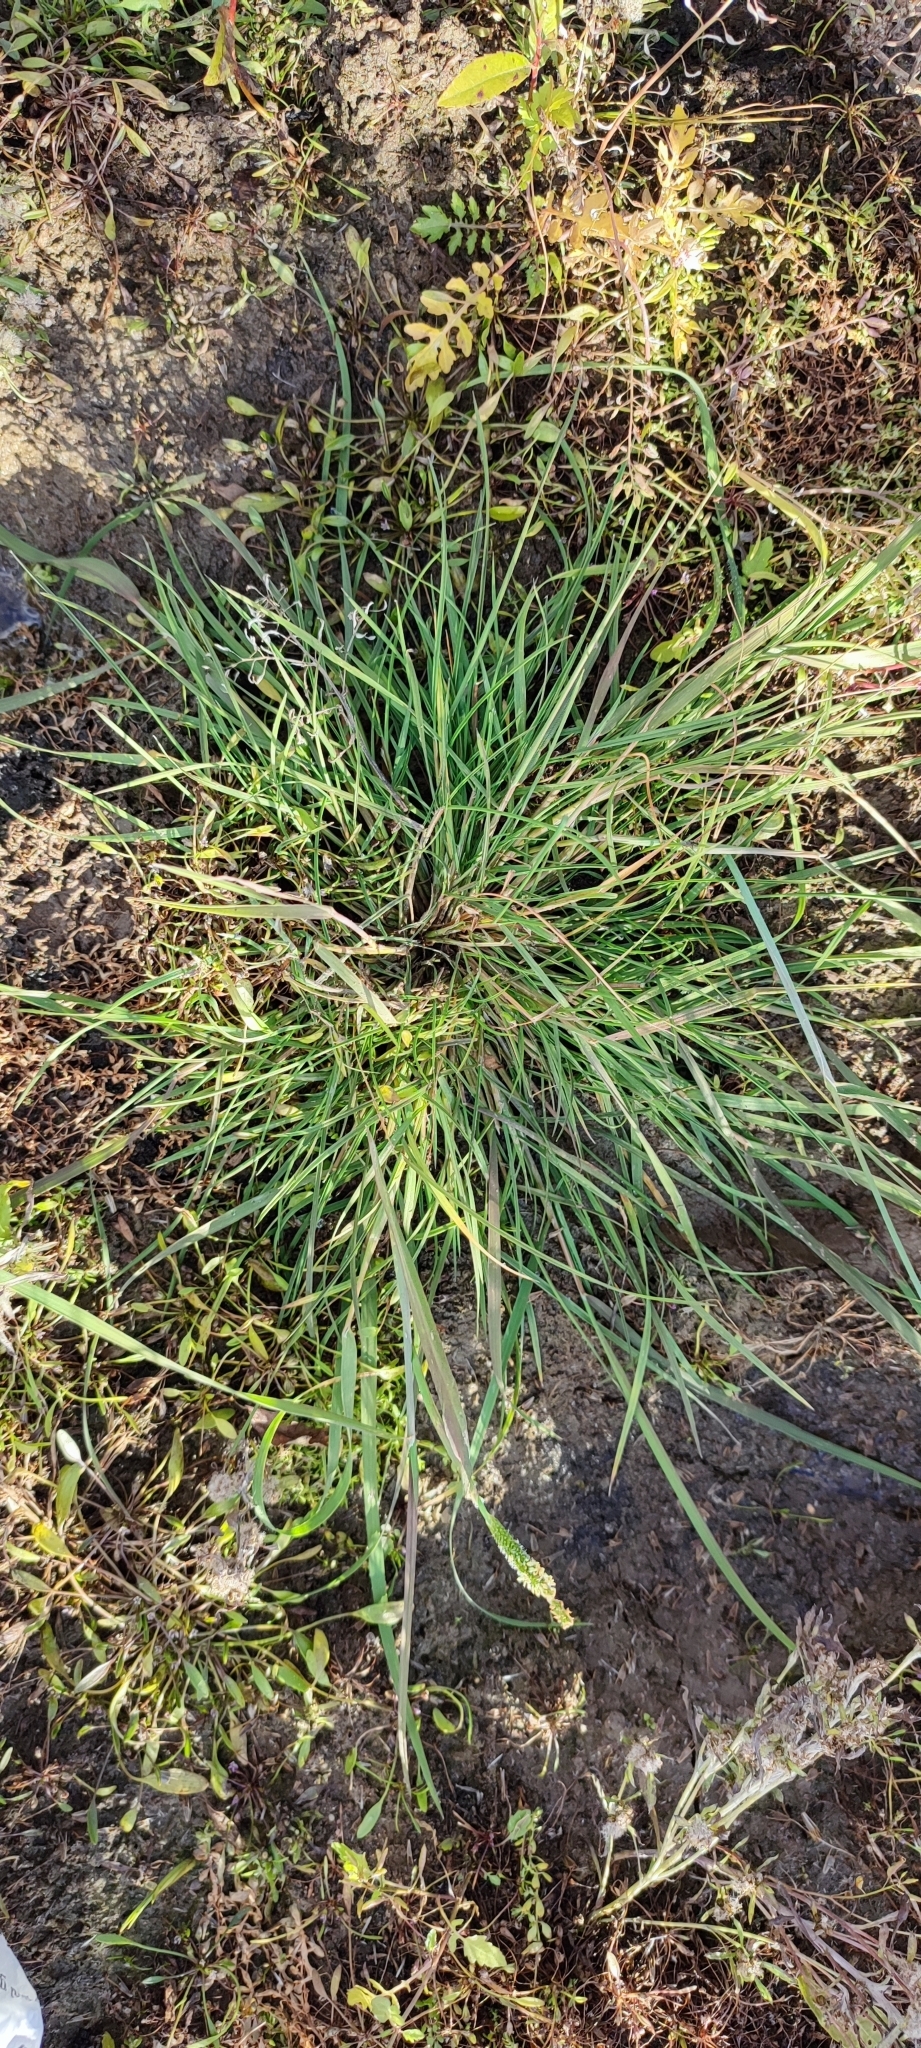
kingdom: Plantae
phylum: Tracheophyta
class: Liliopsida
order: Poales
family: Poaceae
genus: Alopecurus
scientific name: Alopecurus aequalis
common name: Orange foxtail
